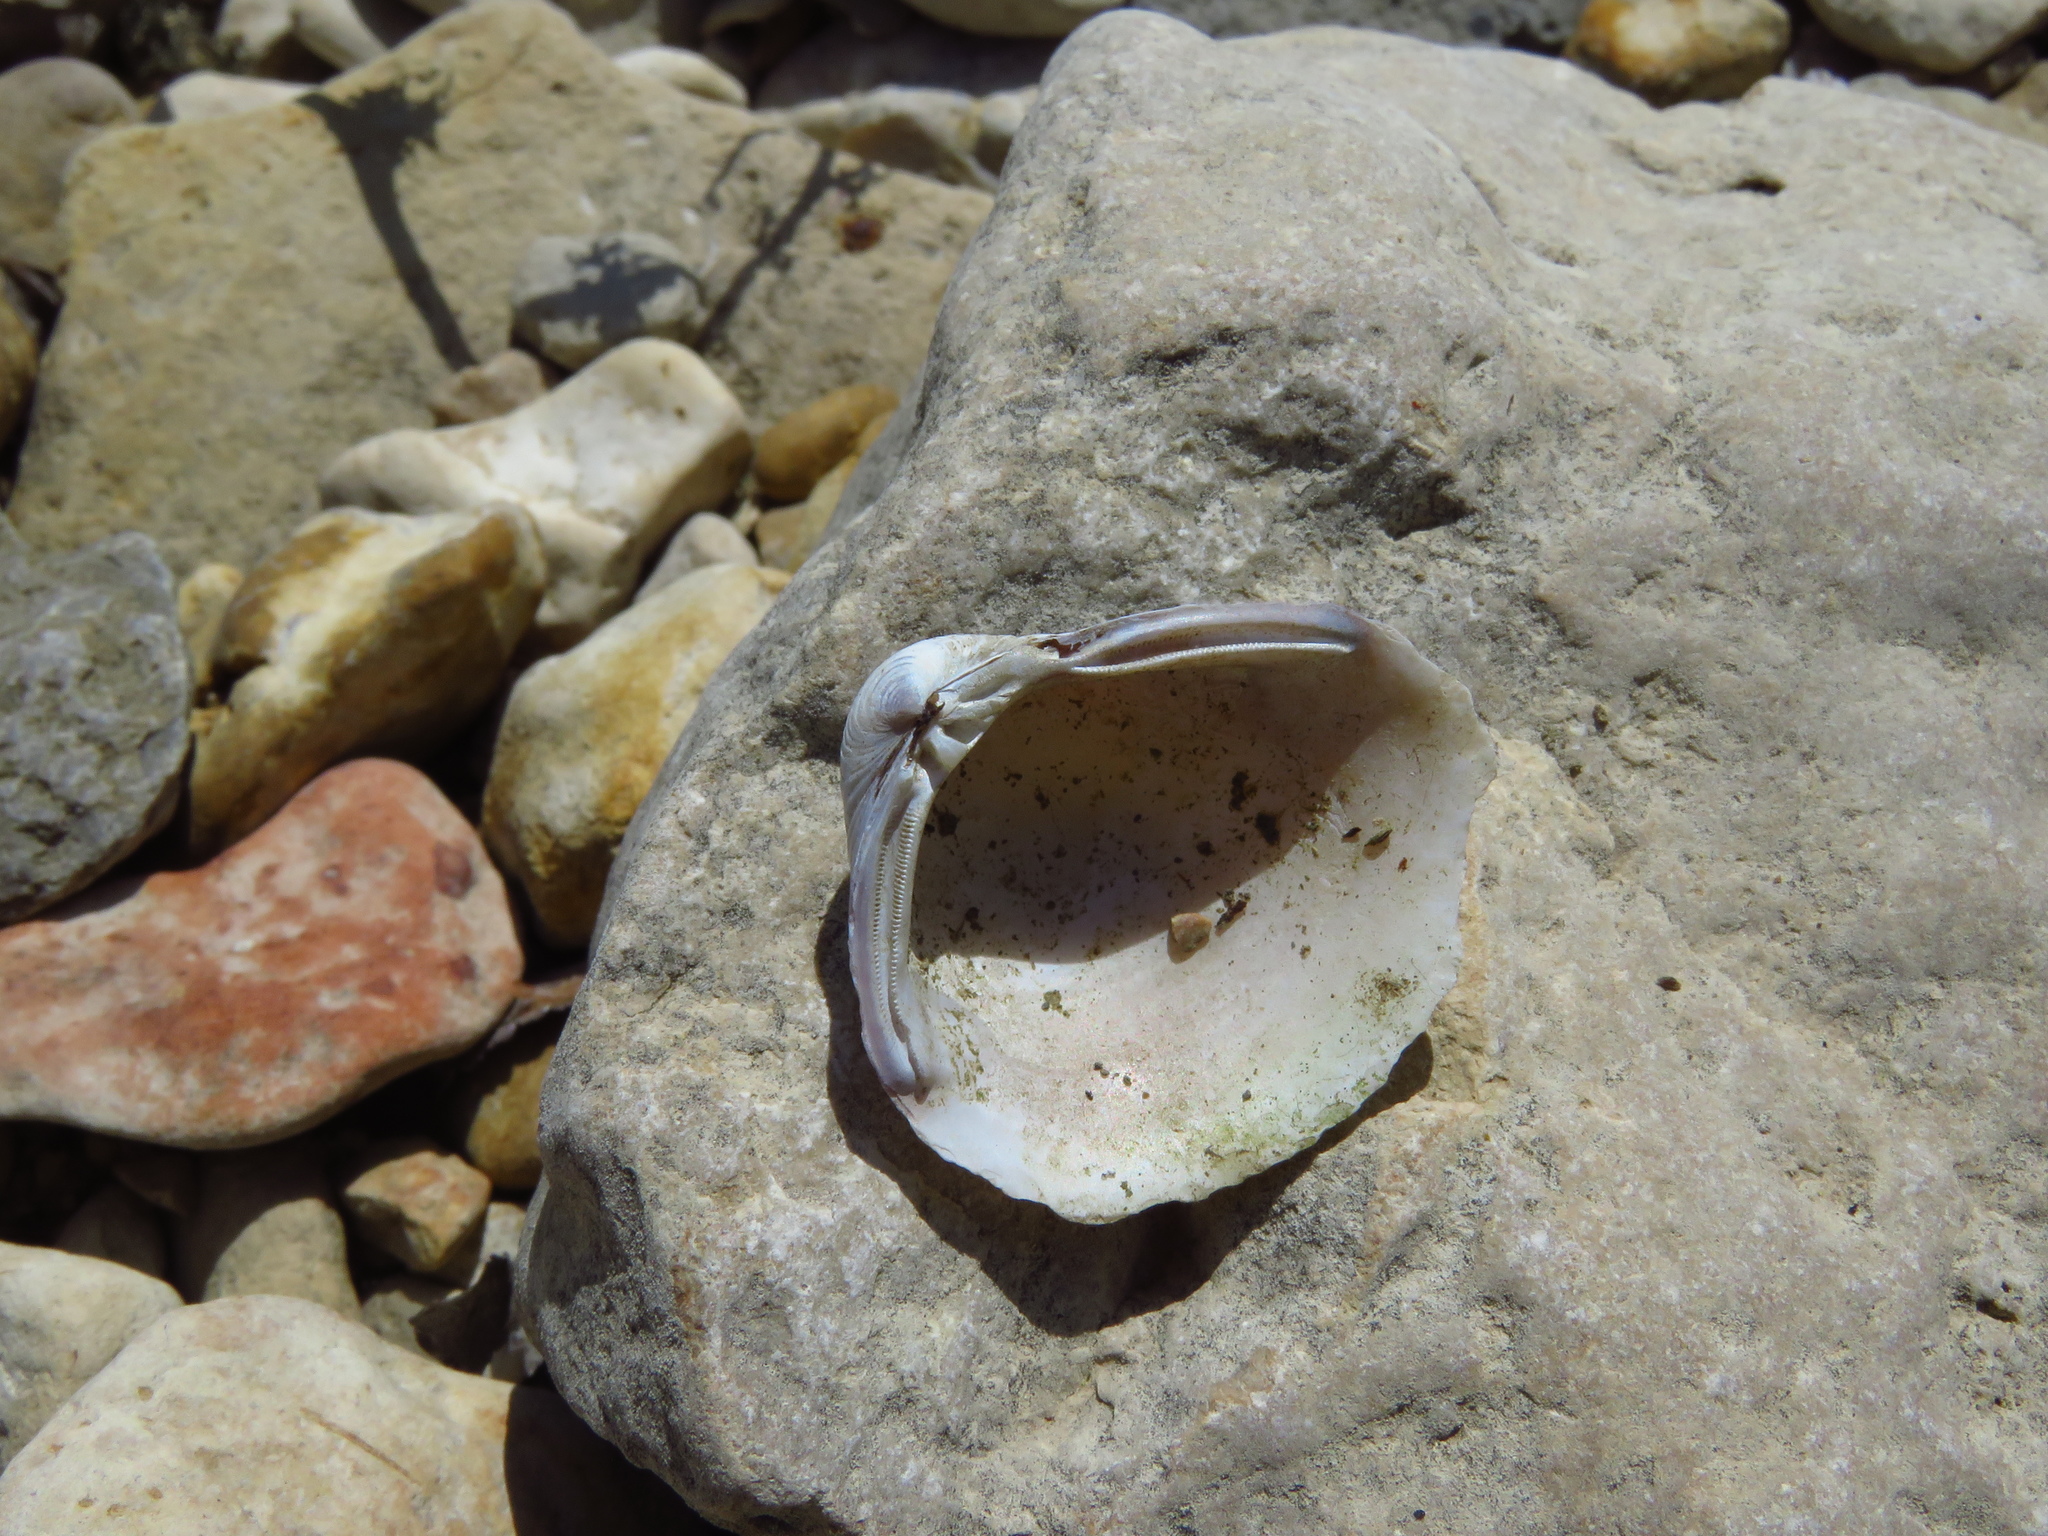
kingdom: Animalia
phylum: Mollusca
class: Bivalvia
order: Venerida
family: Cyrenidae
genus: Corbicula
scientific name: Corbicula fluminea
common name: Asian clam
